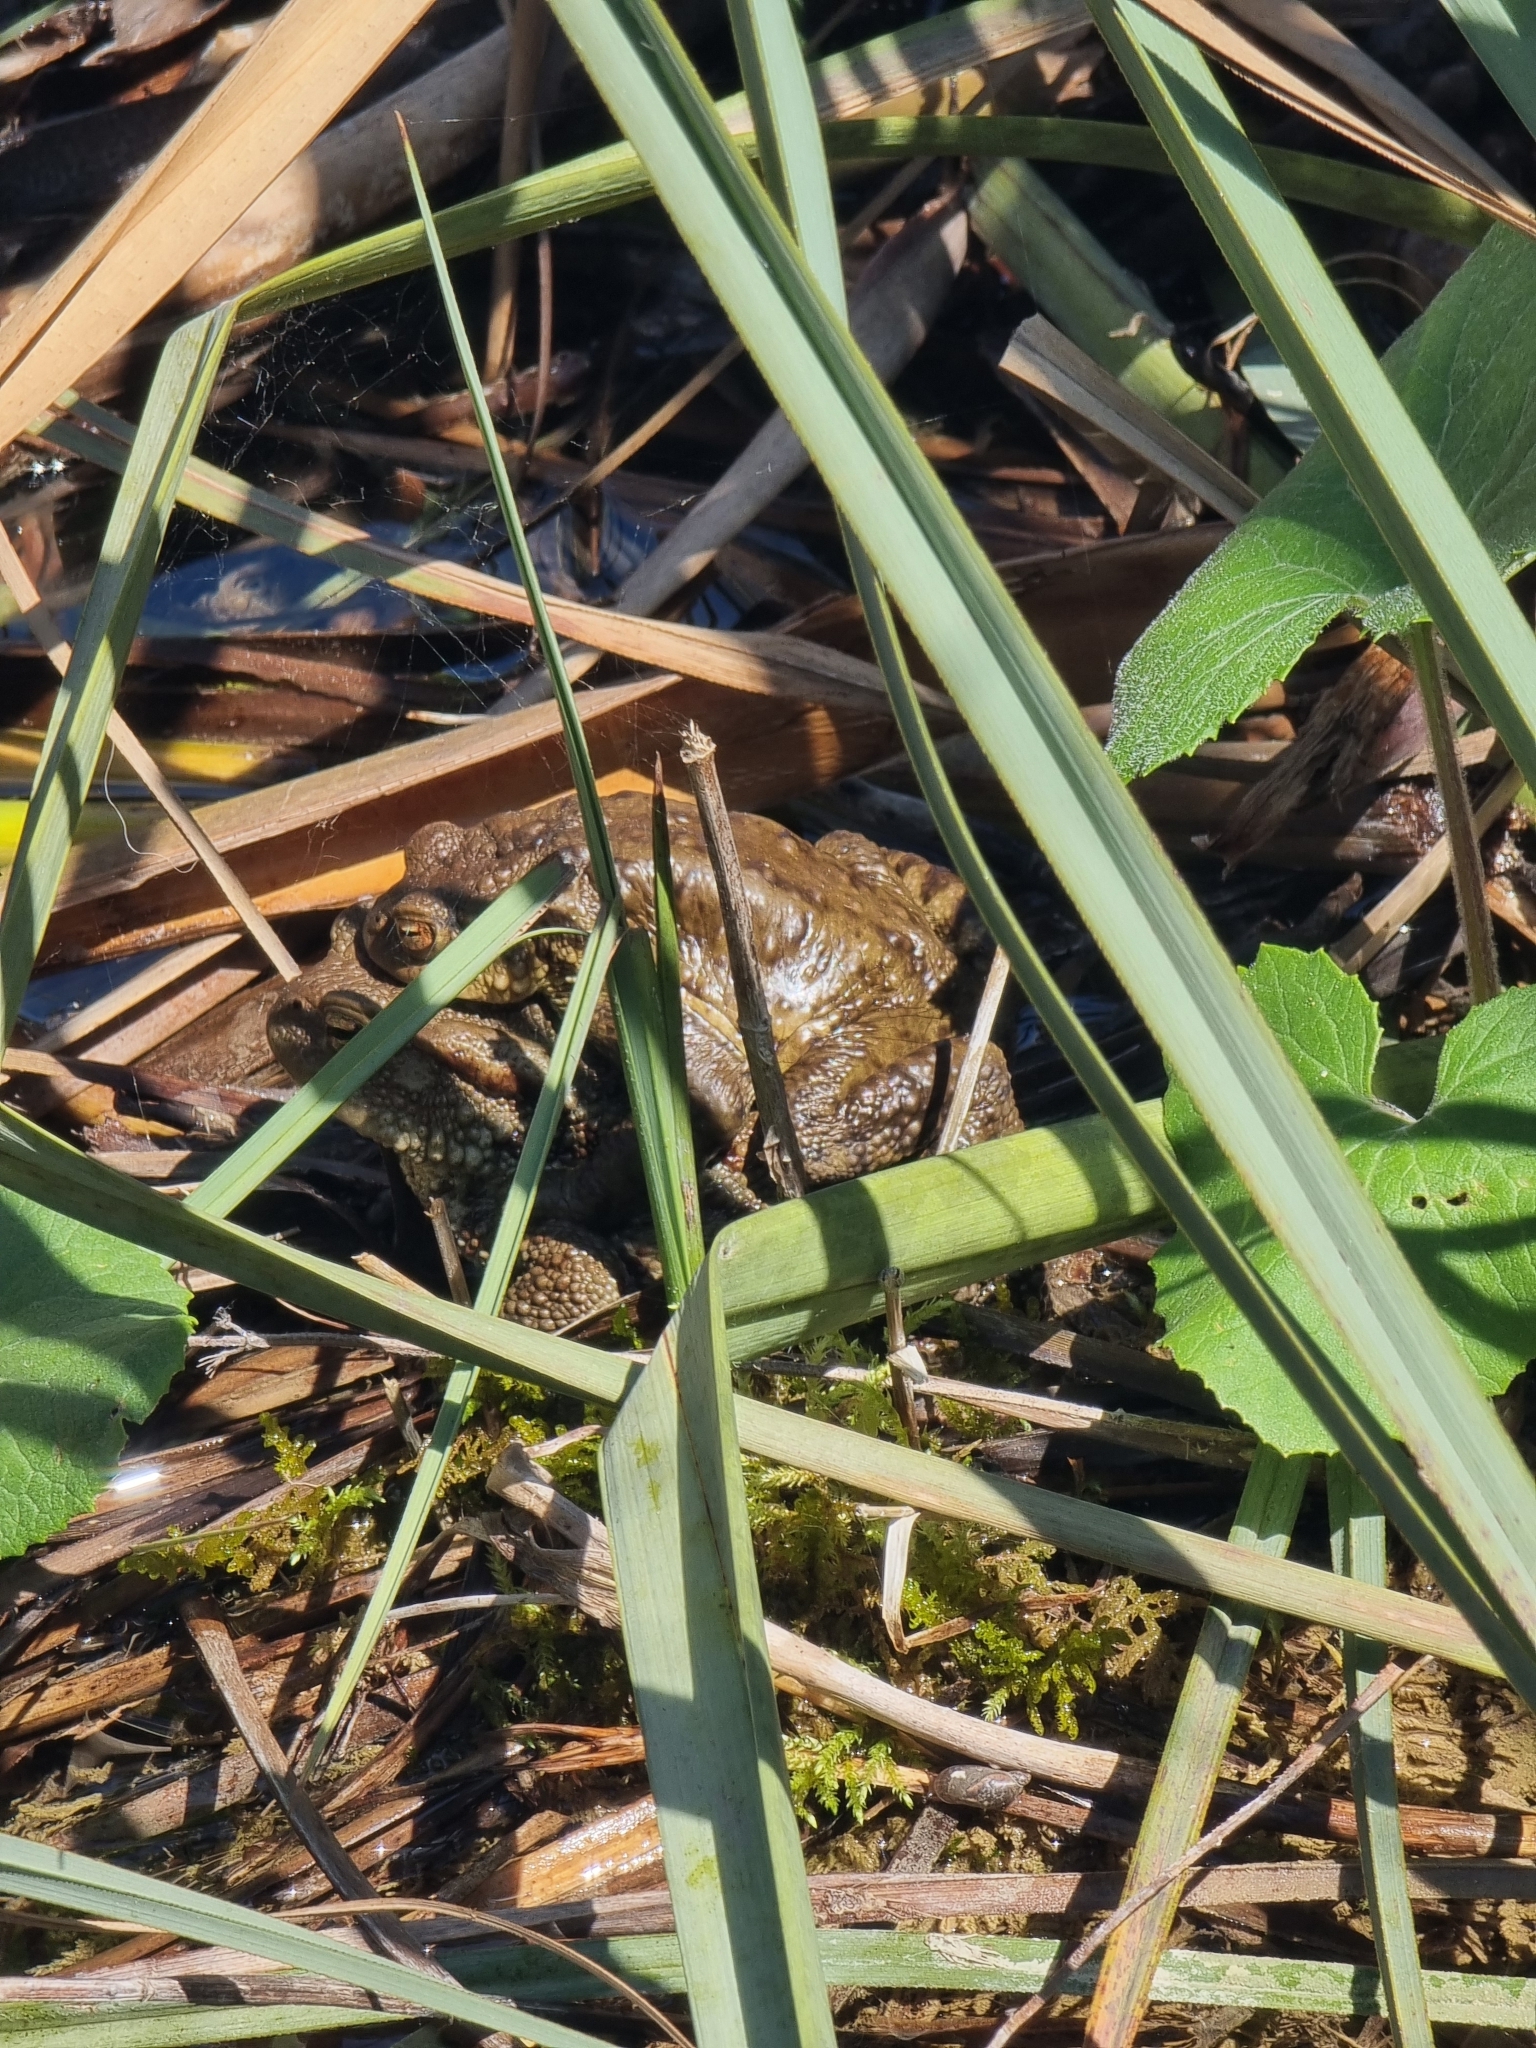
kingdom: Animalia
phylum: Chordata
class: Amphibia
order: Anura
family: Bufonidae
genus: Bufo
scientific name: Bufo bufo
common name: Common toad
